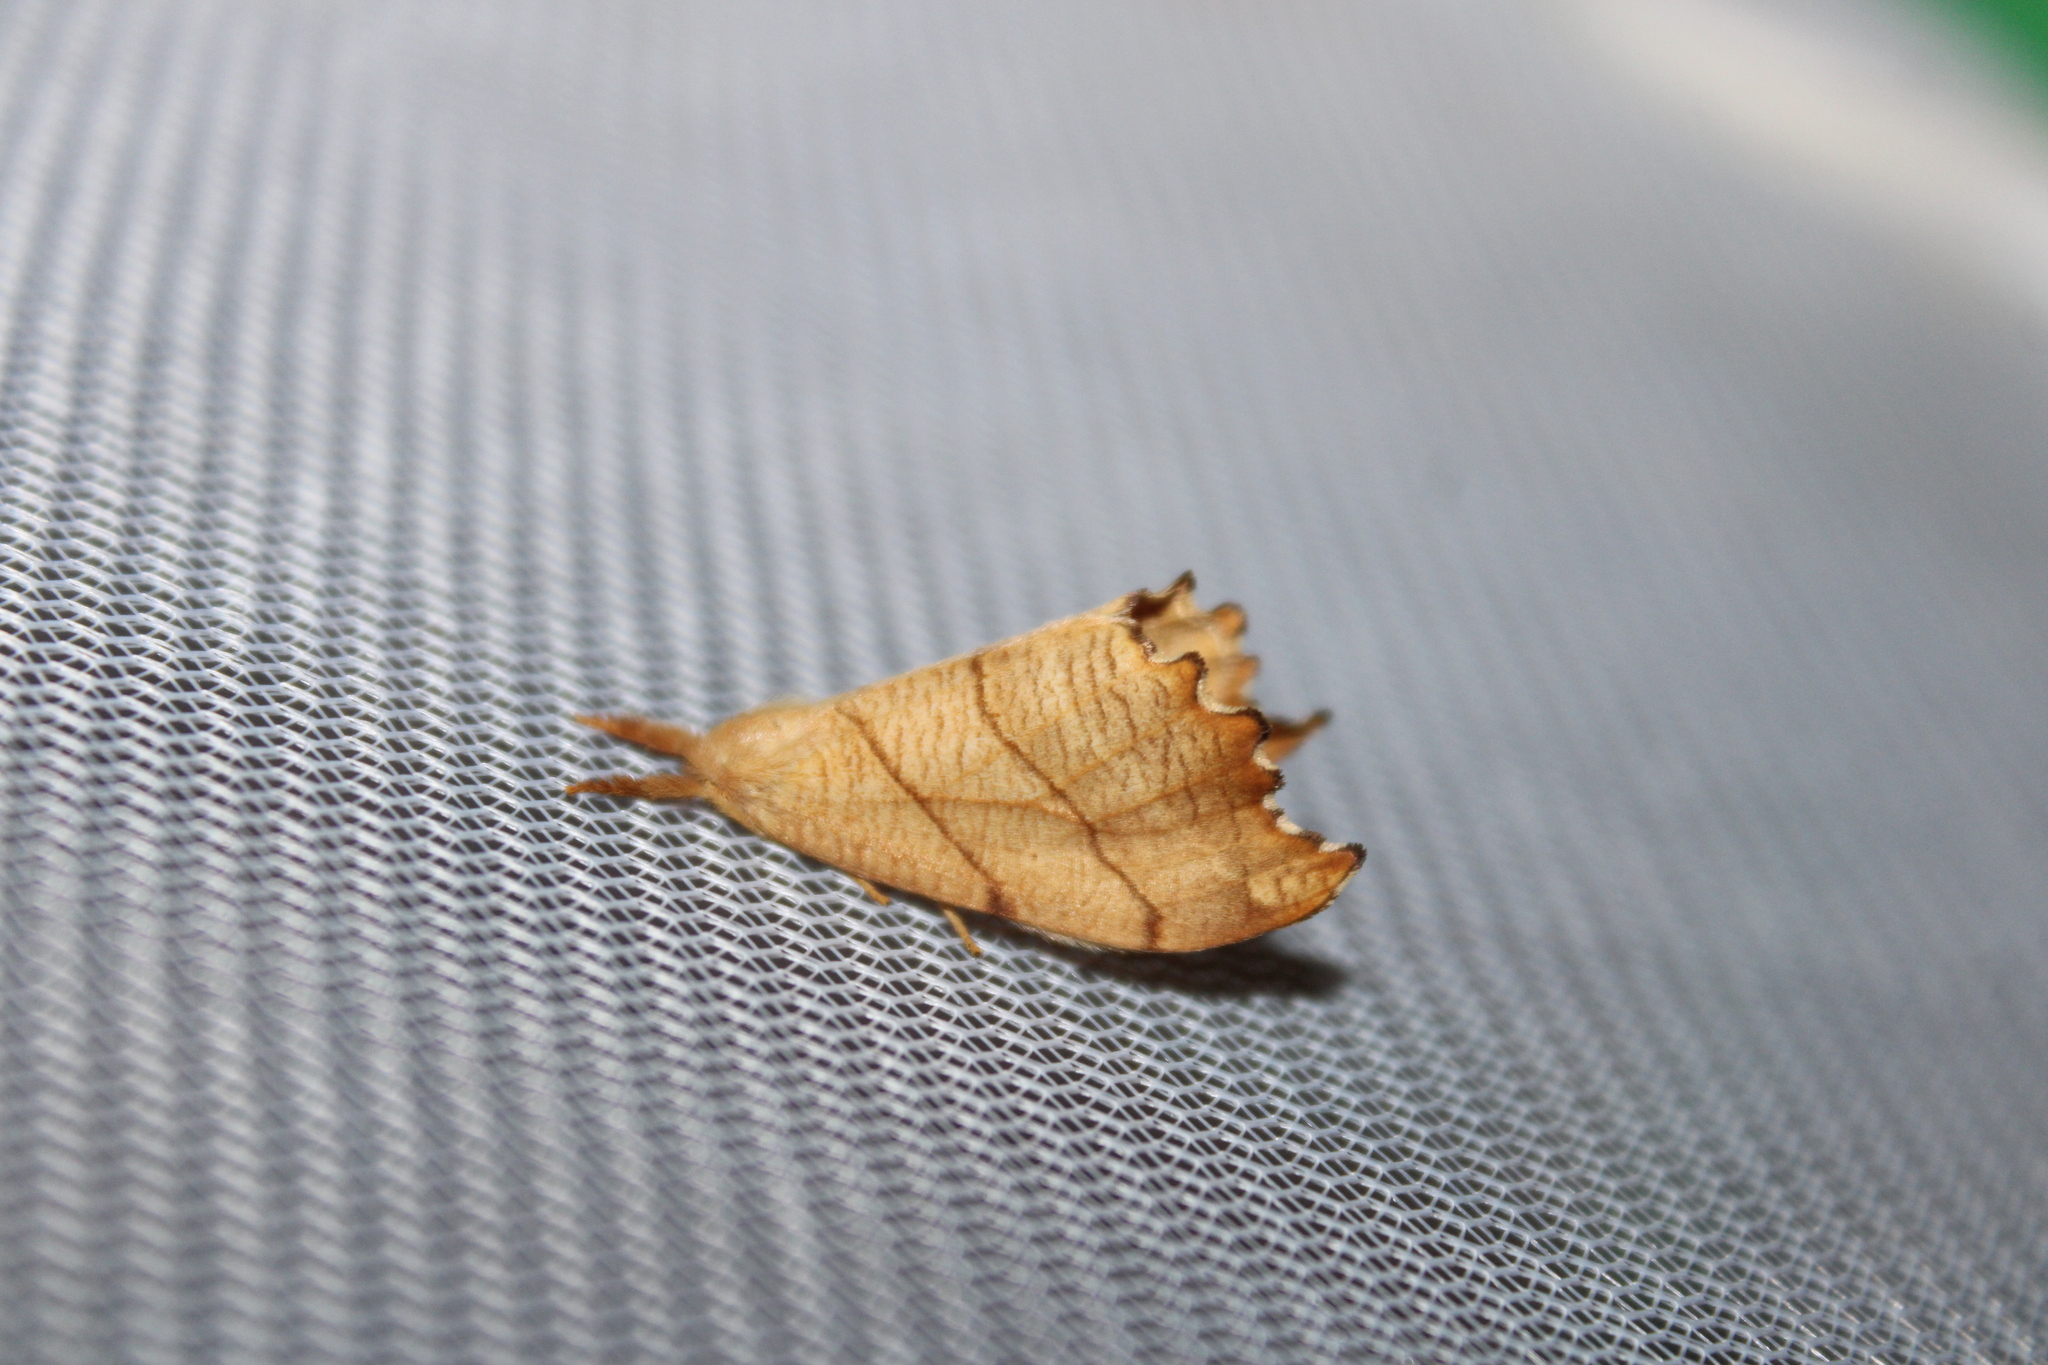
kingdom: Animalia
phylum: Arthropoda
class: Insecta
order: Lepidoptera
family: Drepanidae
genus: Falcaria
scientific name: Falcaria bilineata
